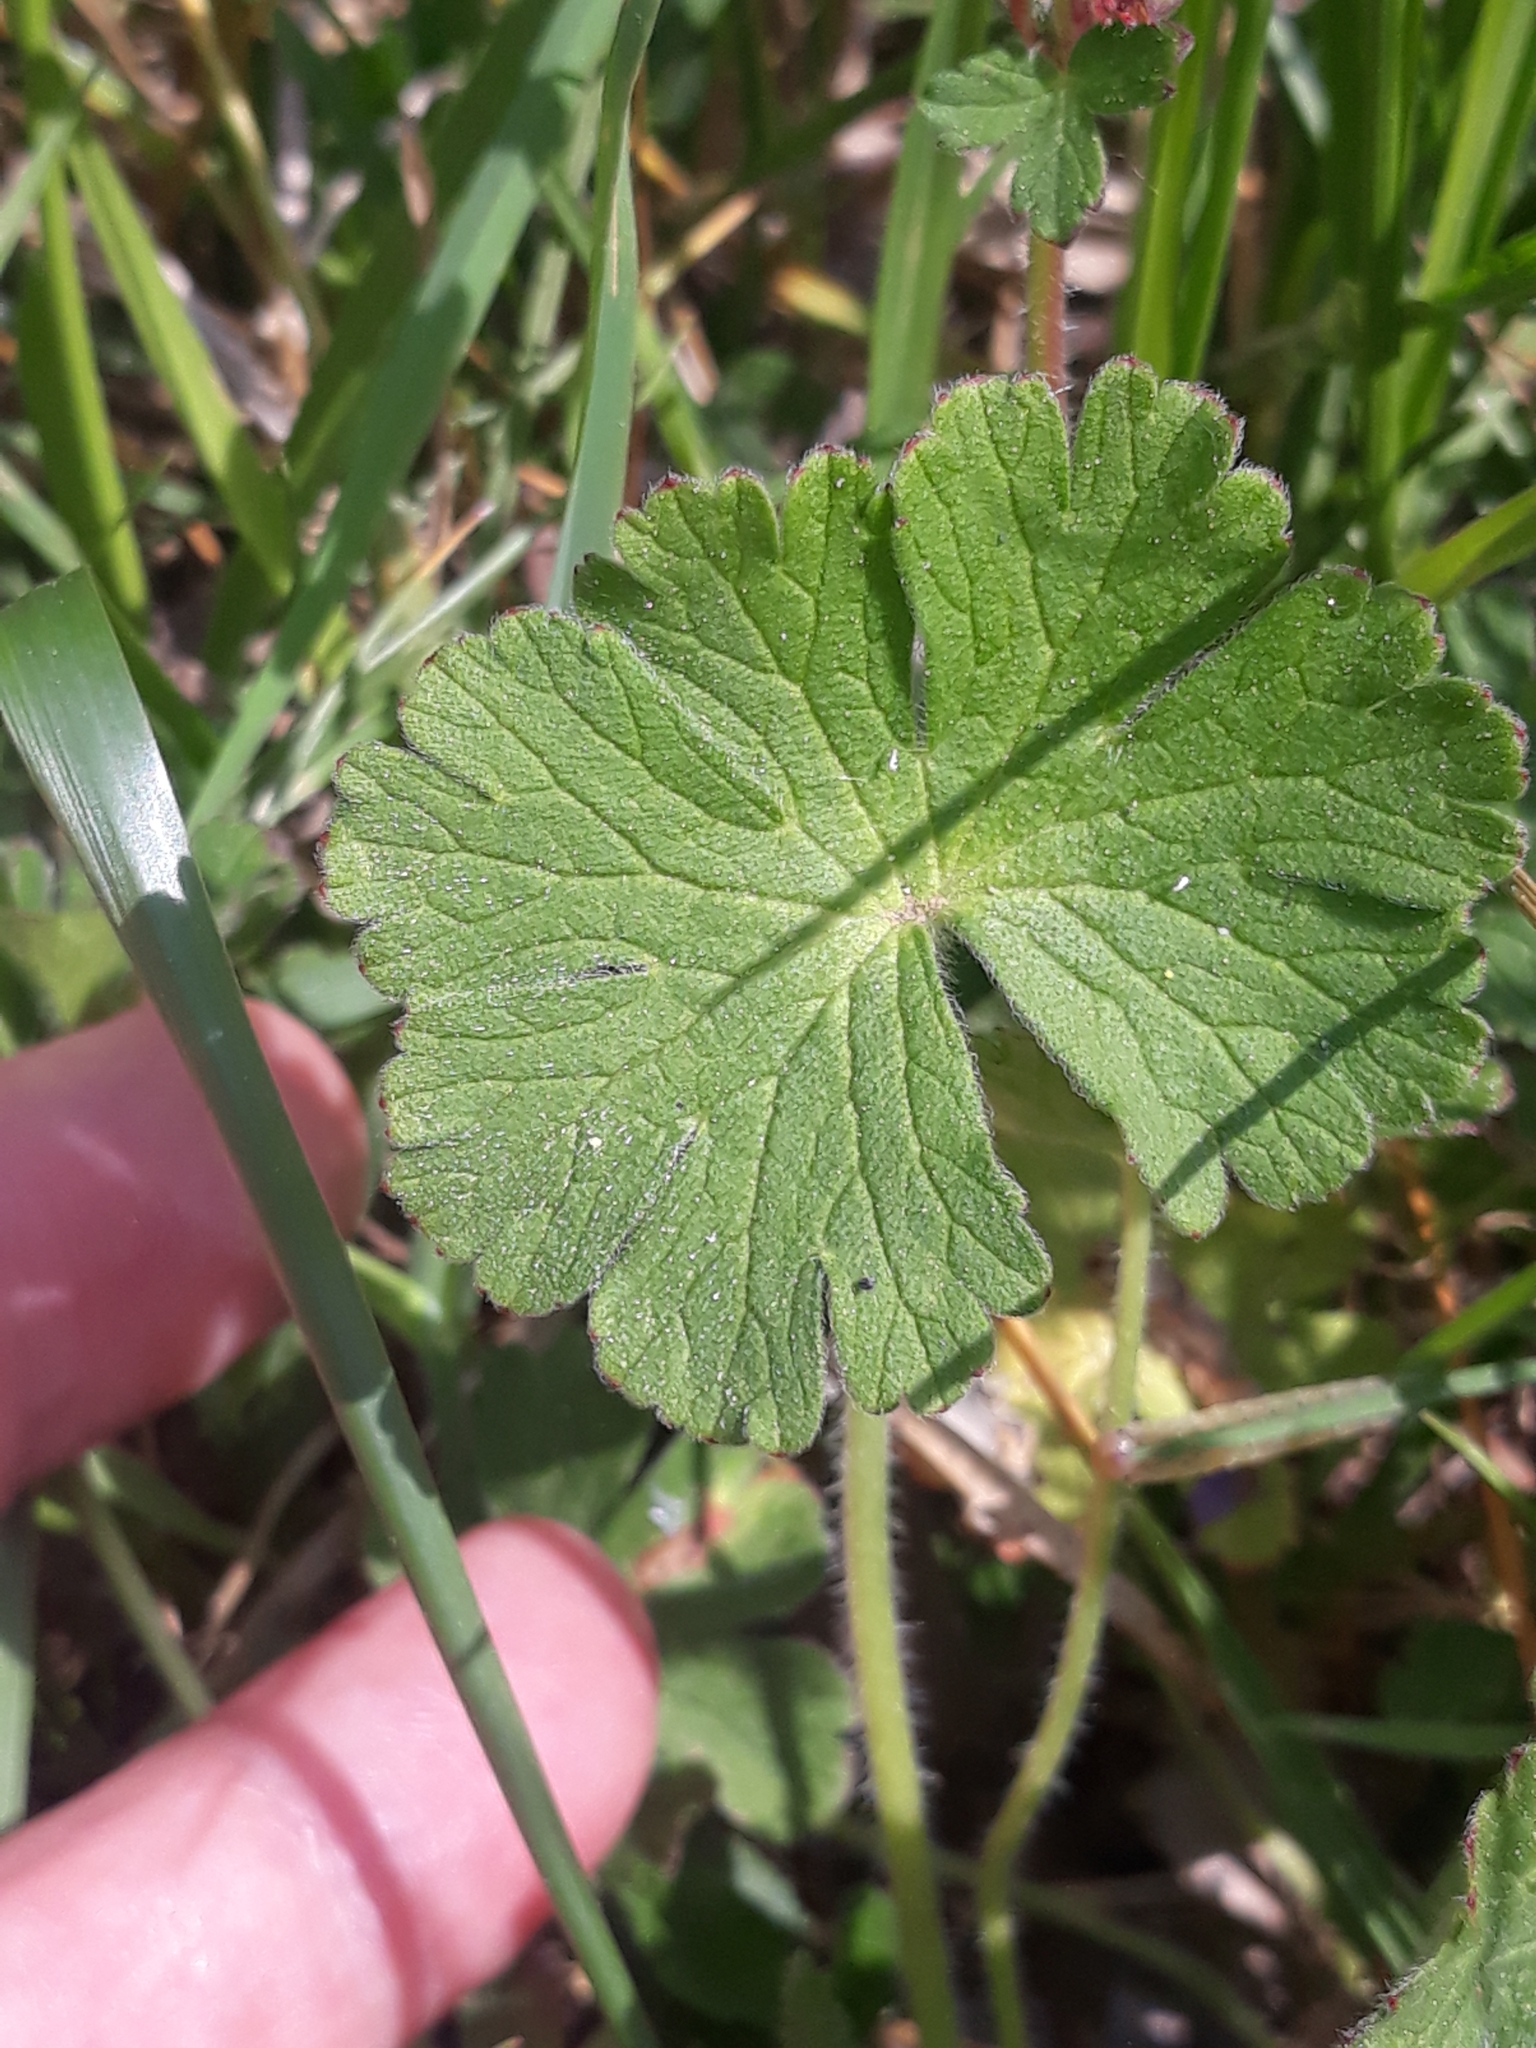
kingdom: Plantae
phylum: Tracheophyta
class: Magnoliopsida
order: Geraniales
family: Geraniaceae
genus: Geranium
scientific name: Geranium pyrenaicum
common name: Hedgerow crane's-bill
